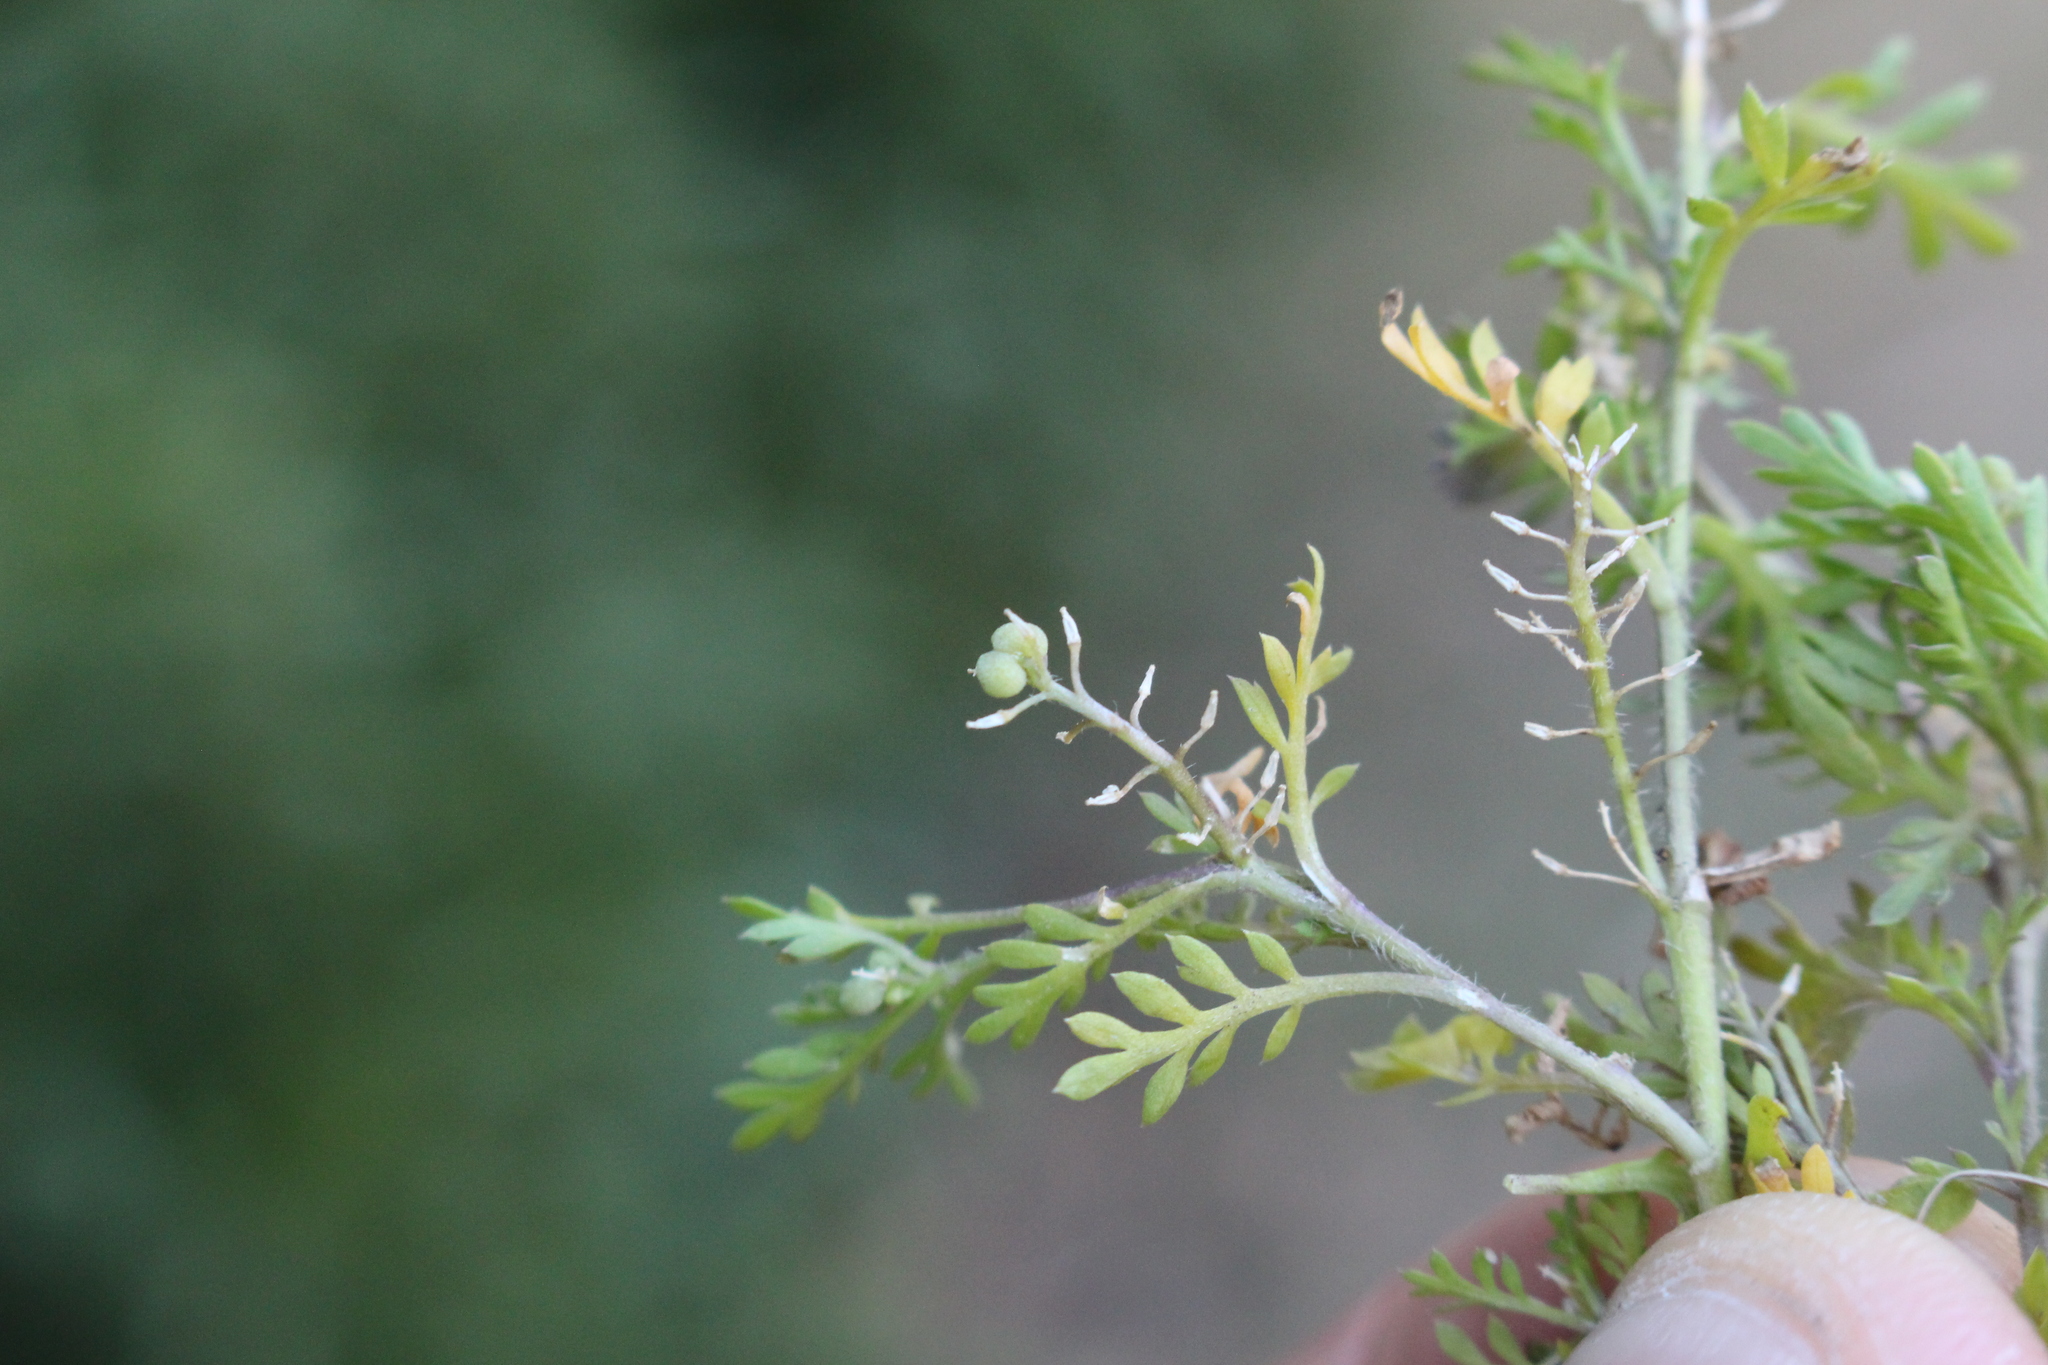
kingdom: Plantae
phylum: Tracheophyta
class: Magnoliopsida
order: Brassicales
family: Brassicaceae
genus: Lepidium
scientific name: Lepidium didymum
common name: Lesser swinecress
